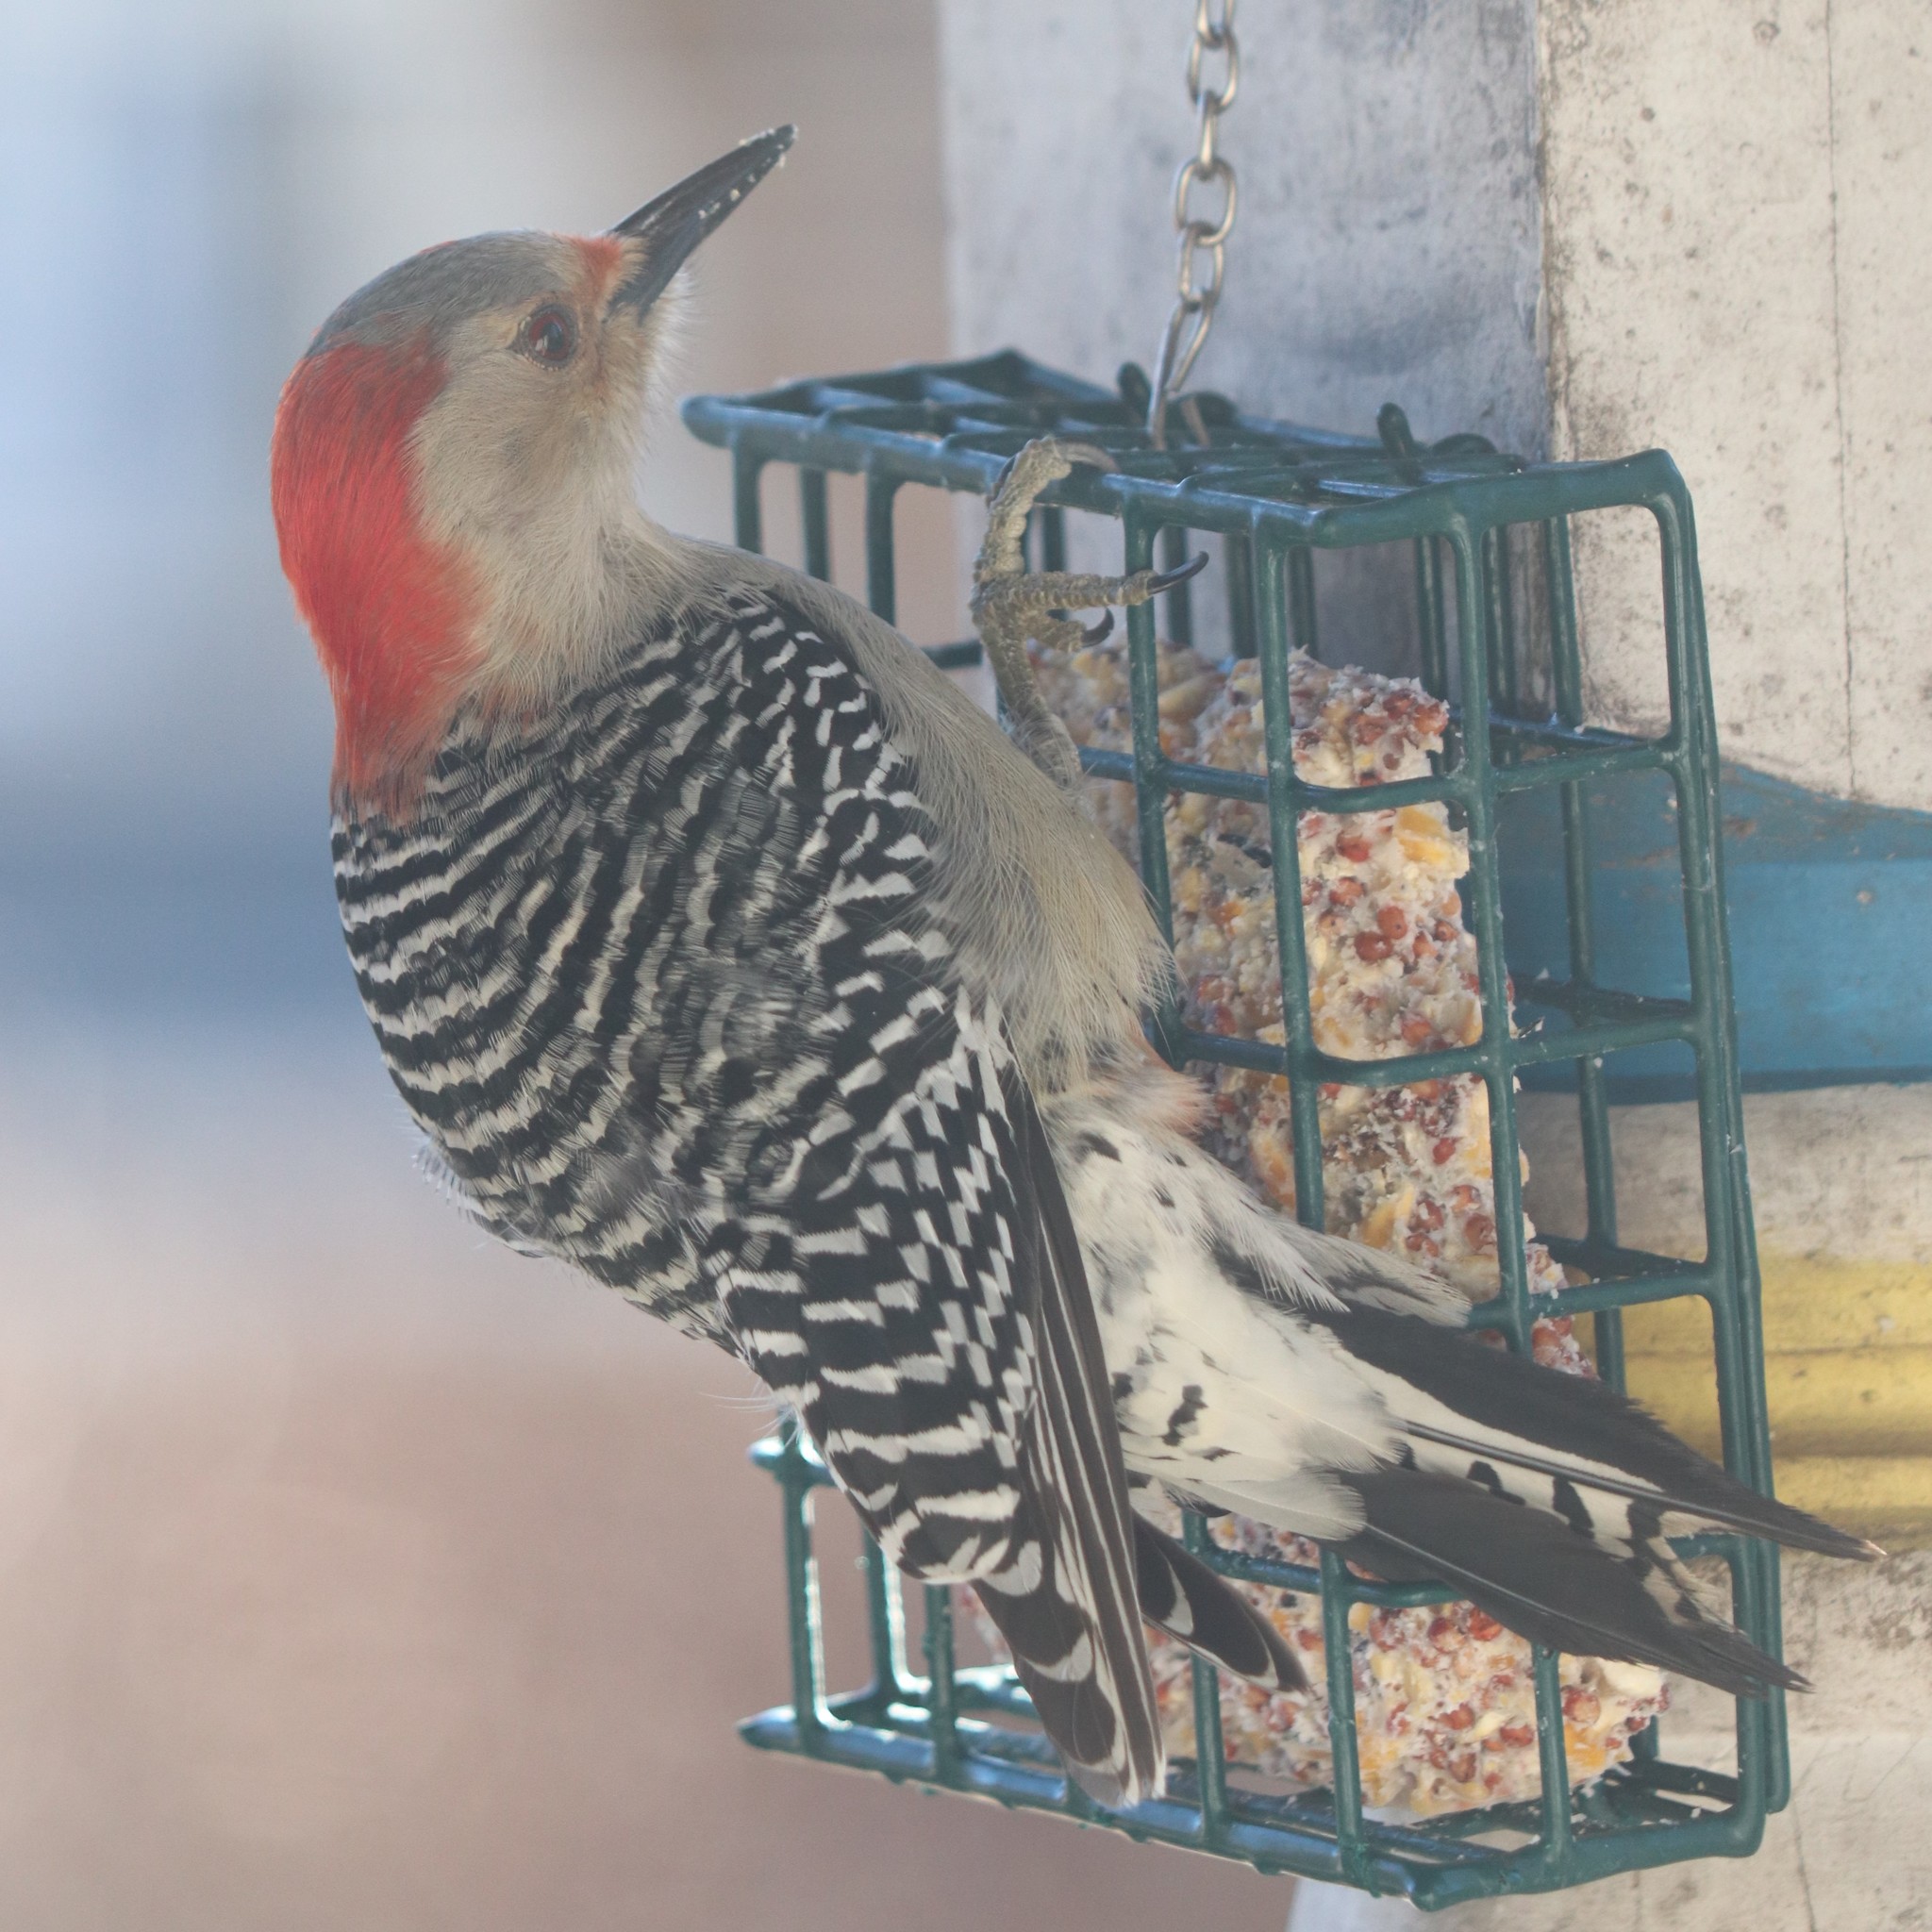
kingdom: Animalia
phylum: Chordata
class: Aves
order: Piciformes
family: Picidae
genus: Melanerpes
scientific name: Melanerpes carolinus
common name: Red-bellied woodpecker
